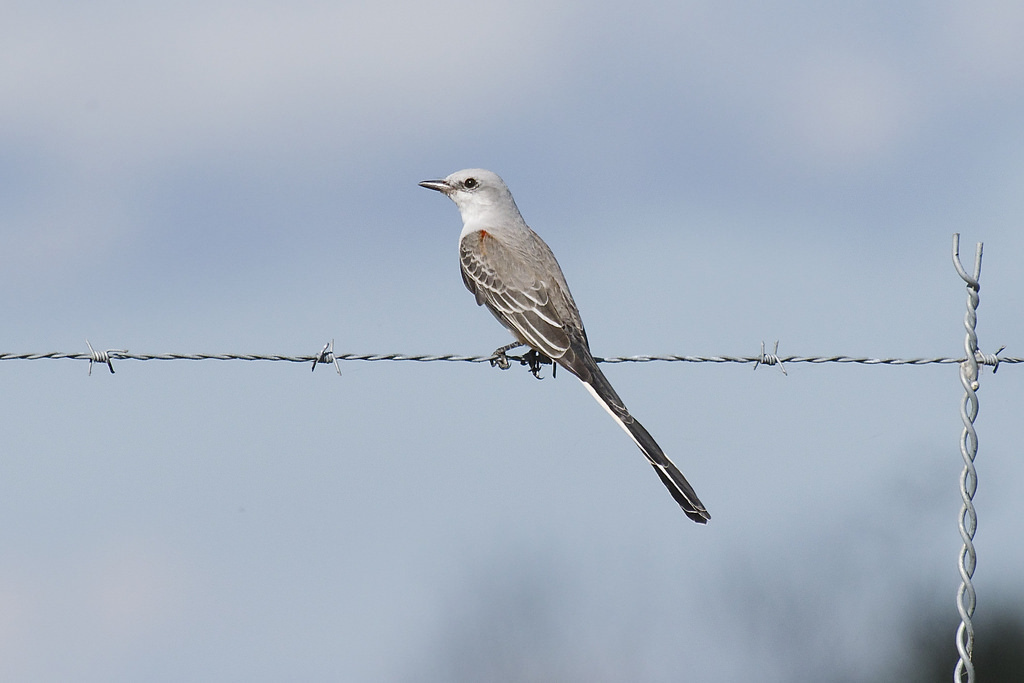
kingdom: Animalia
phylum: Chordata
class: Aves
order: Passeriformes
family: Tyrannidae
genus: Tyrannus
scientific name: Tyrannus forficatus
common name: Scissor-tailed flycatcher
